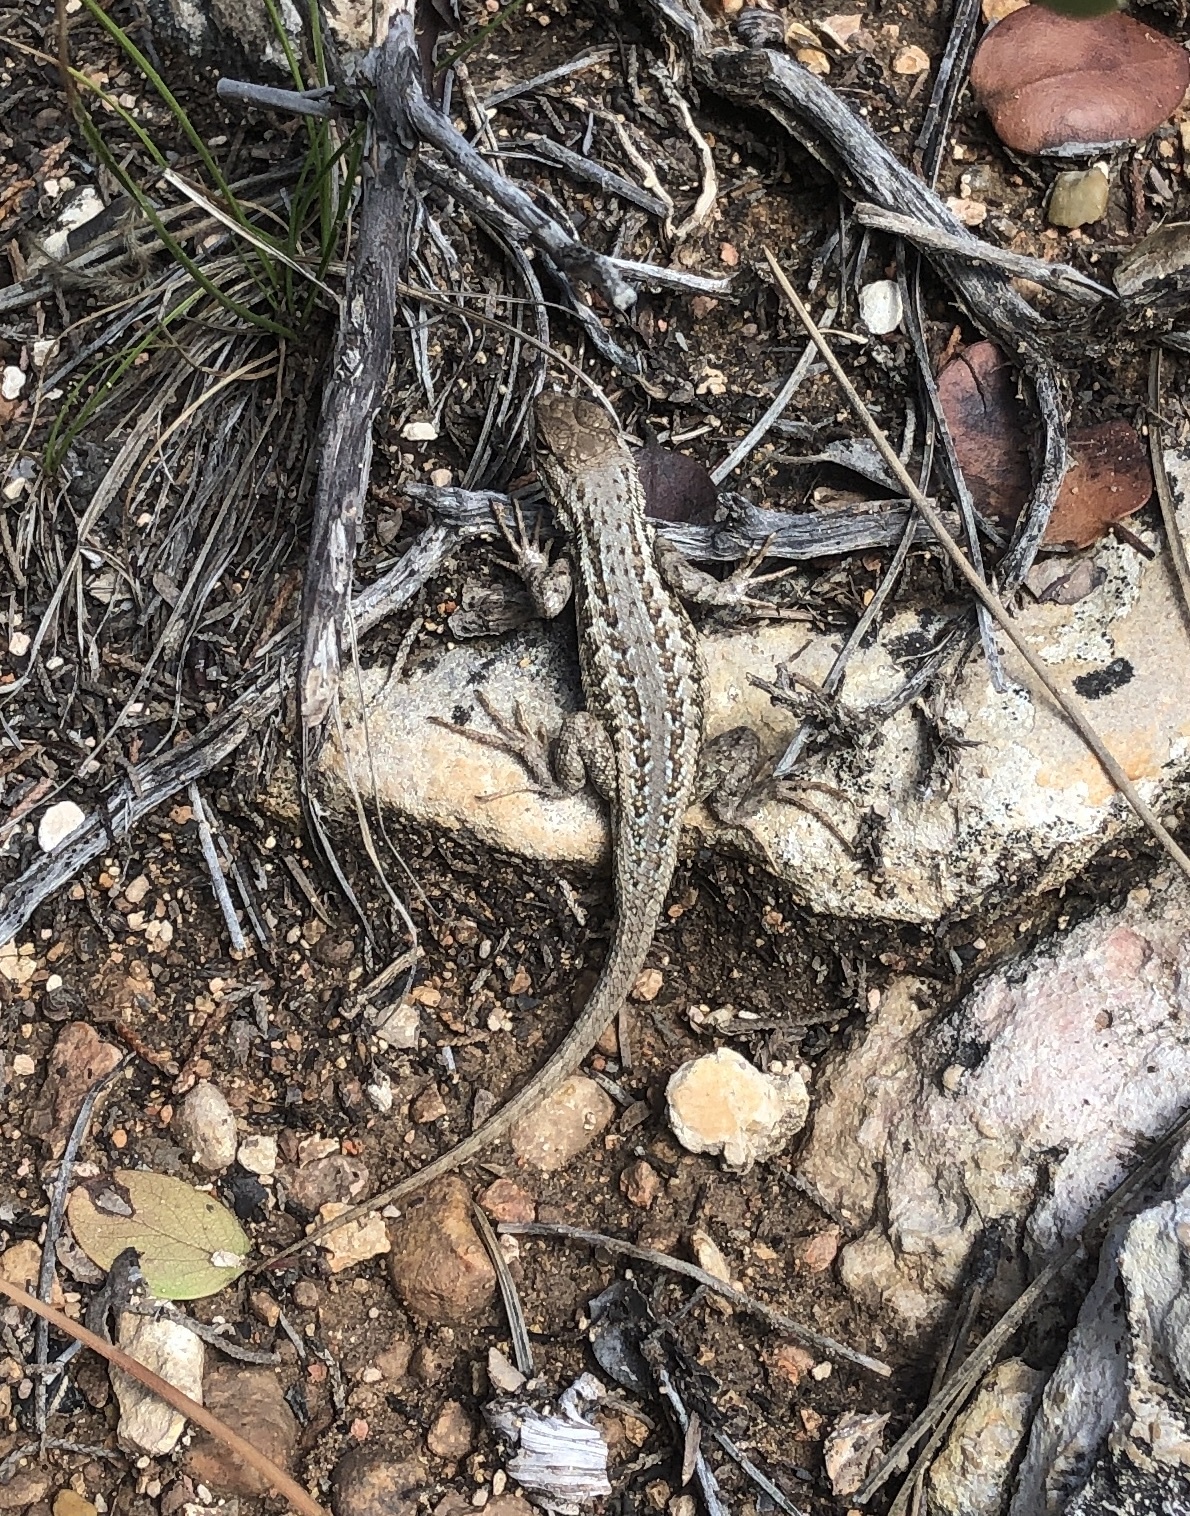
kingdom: Animalia
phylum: Chordata
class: Squamata
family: Phrynosomatidae
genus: Sceloporus
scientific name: Sceloporus graciosus
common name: Sagebrush lizard
